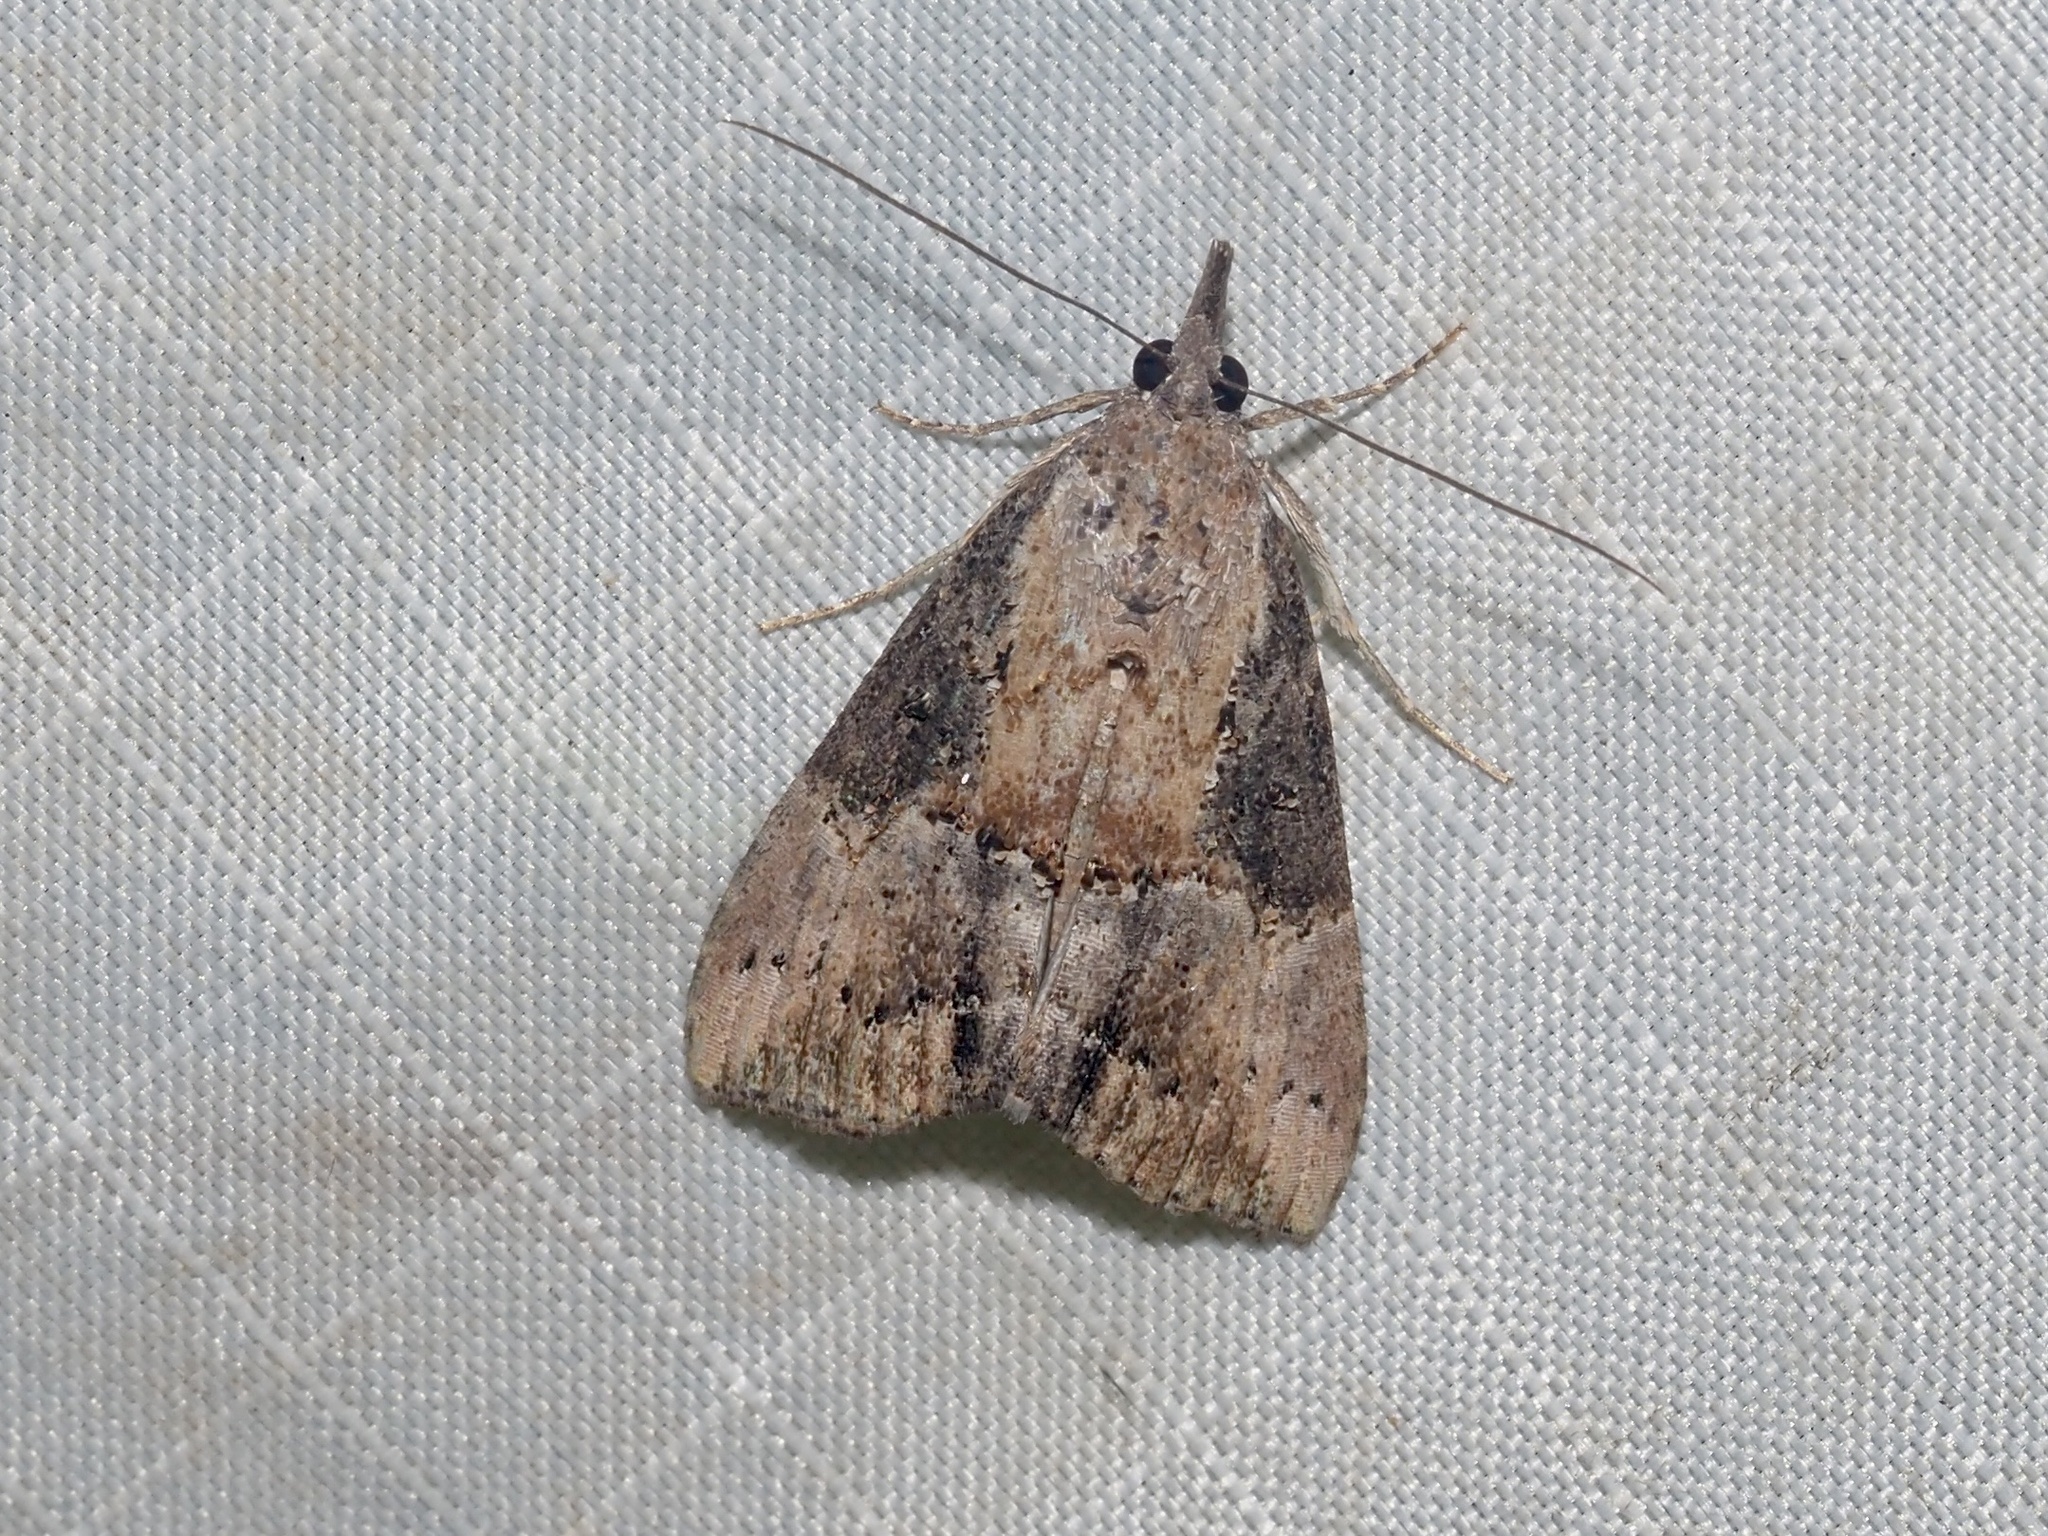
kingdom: Animalia
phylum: Arthropoda
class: Insecta
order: Lepidoptera
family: Erebidae
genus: Hypena
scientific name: Hypena scabra
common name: Green cloverworm
